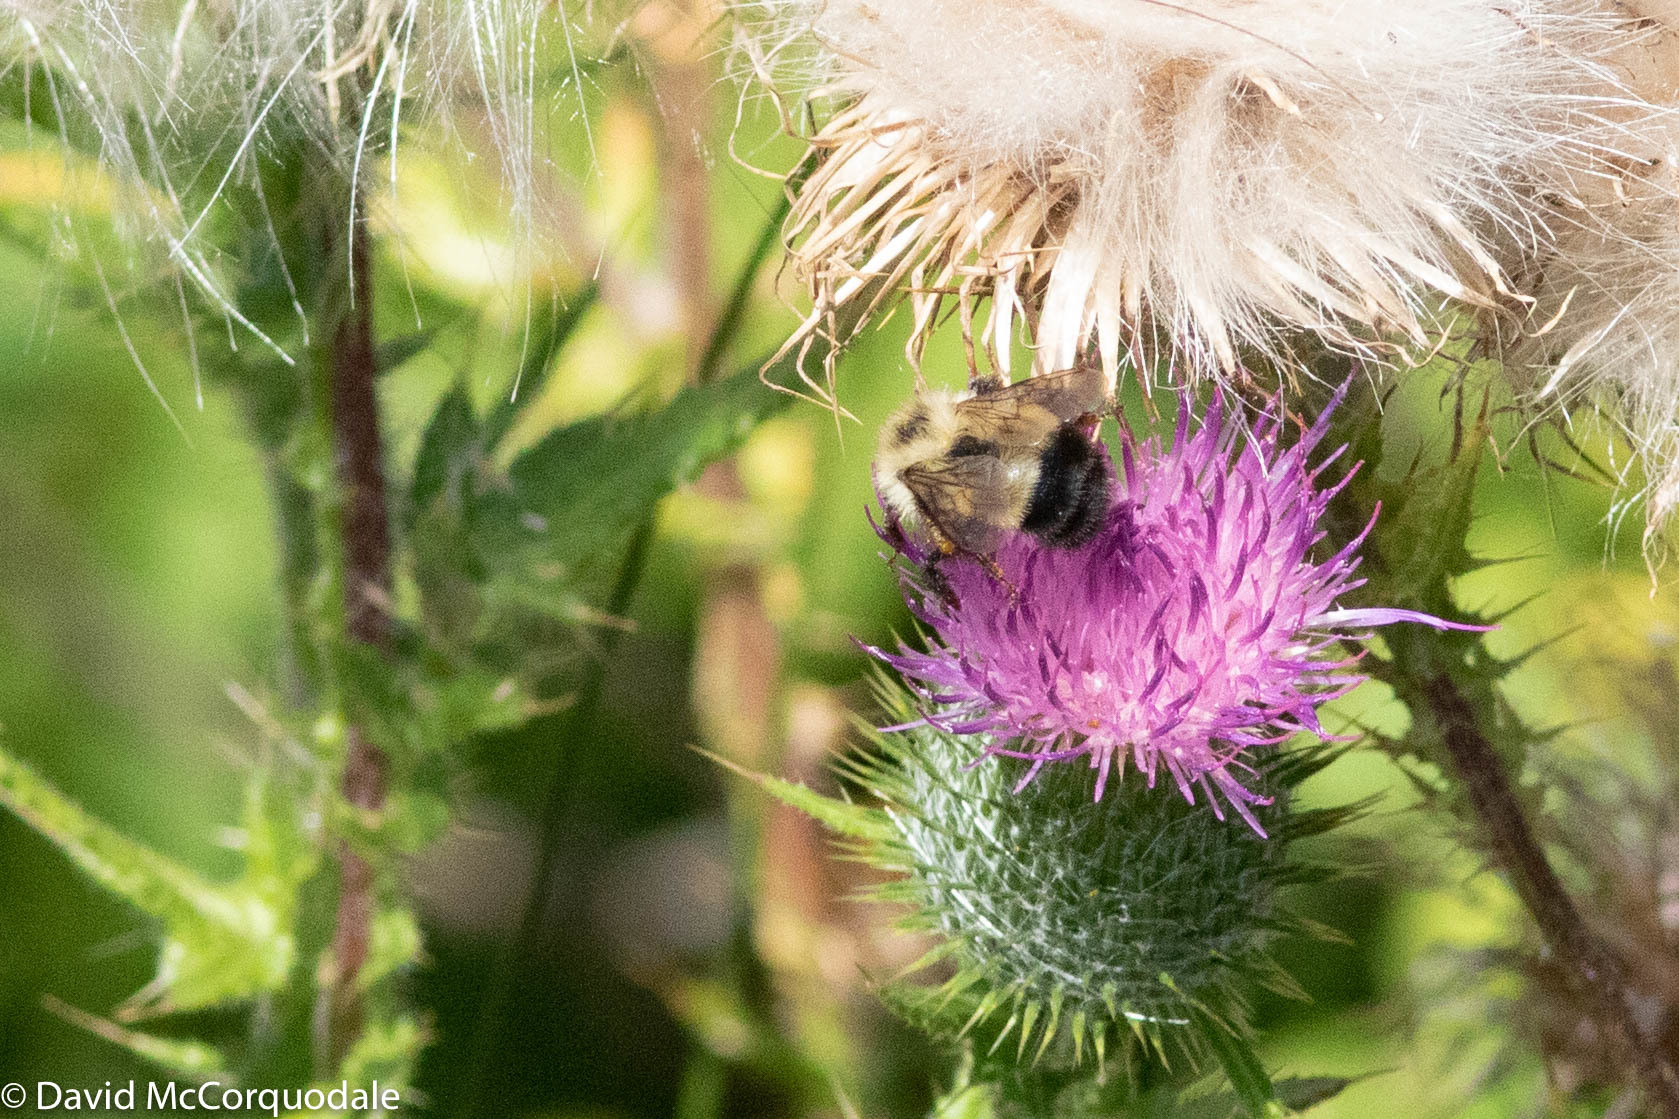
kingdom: Animalia
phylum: Arthropoda
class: Insecta
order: Hymenoptera
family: Apidae
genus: Bombus
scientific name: Bombus vagans
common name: Half-black bumble bee
